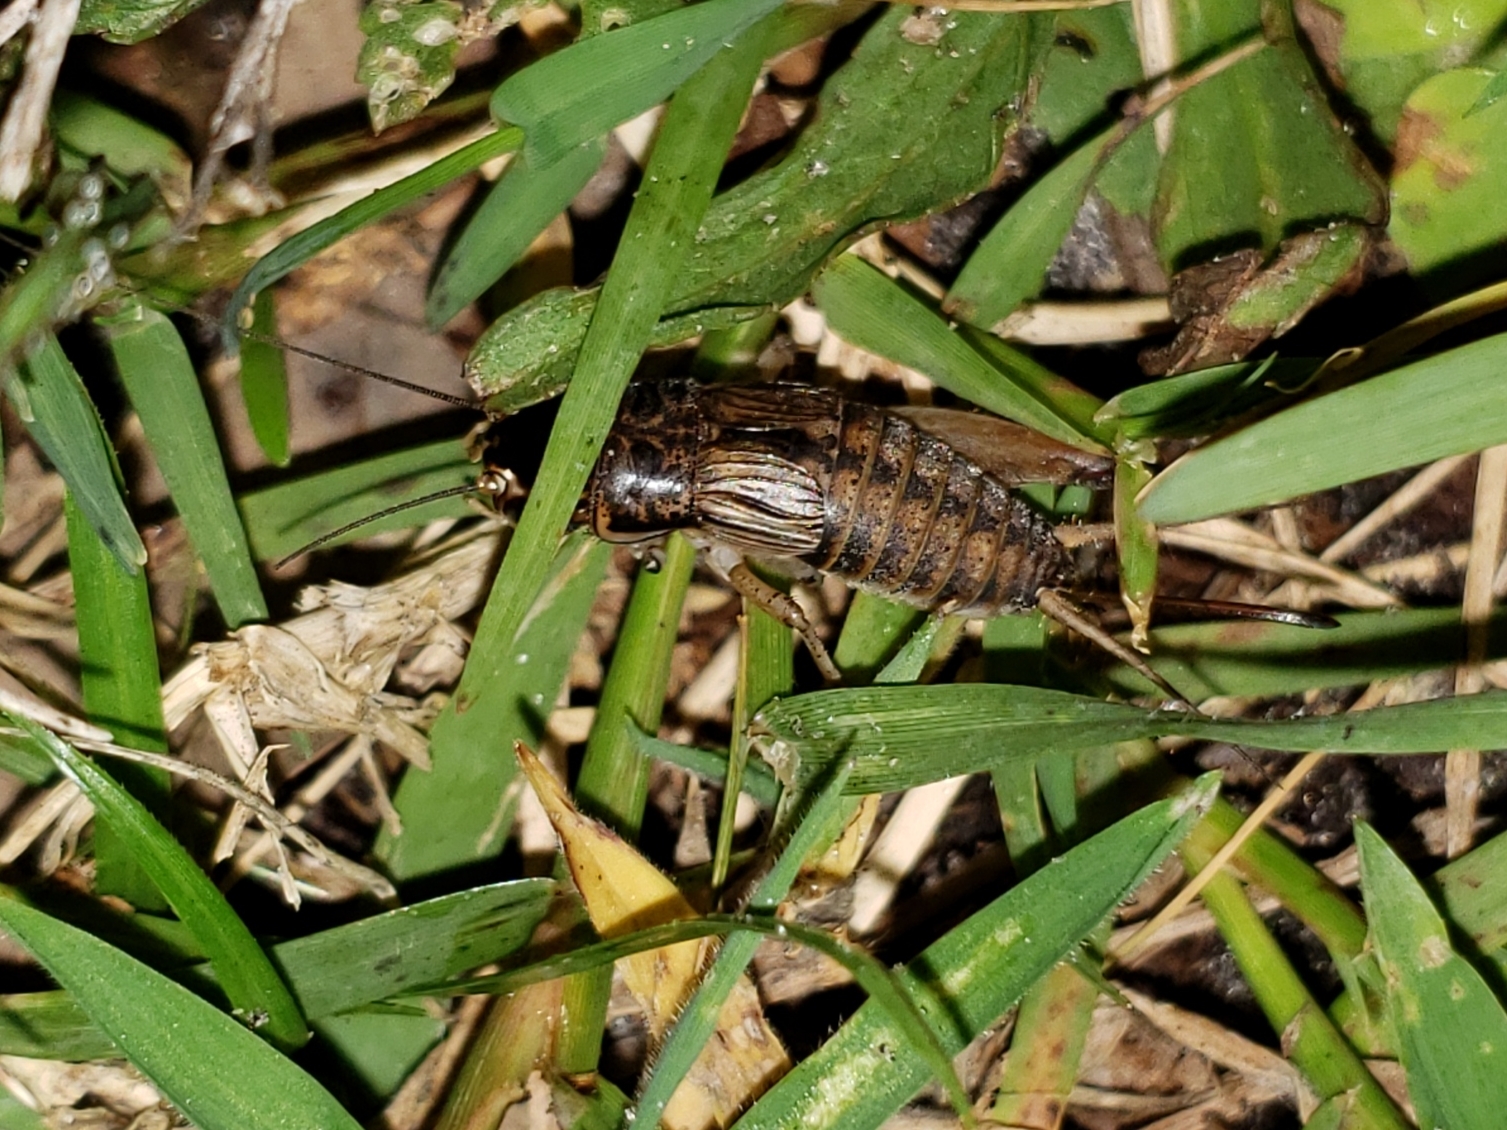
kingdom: Animalia
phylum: Arthropoda
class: Insecta
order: Orthoptera
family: Gryllidae
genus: Miogryllus
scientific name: Miogryllus verticalis
